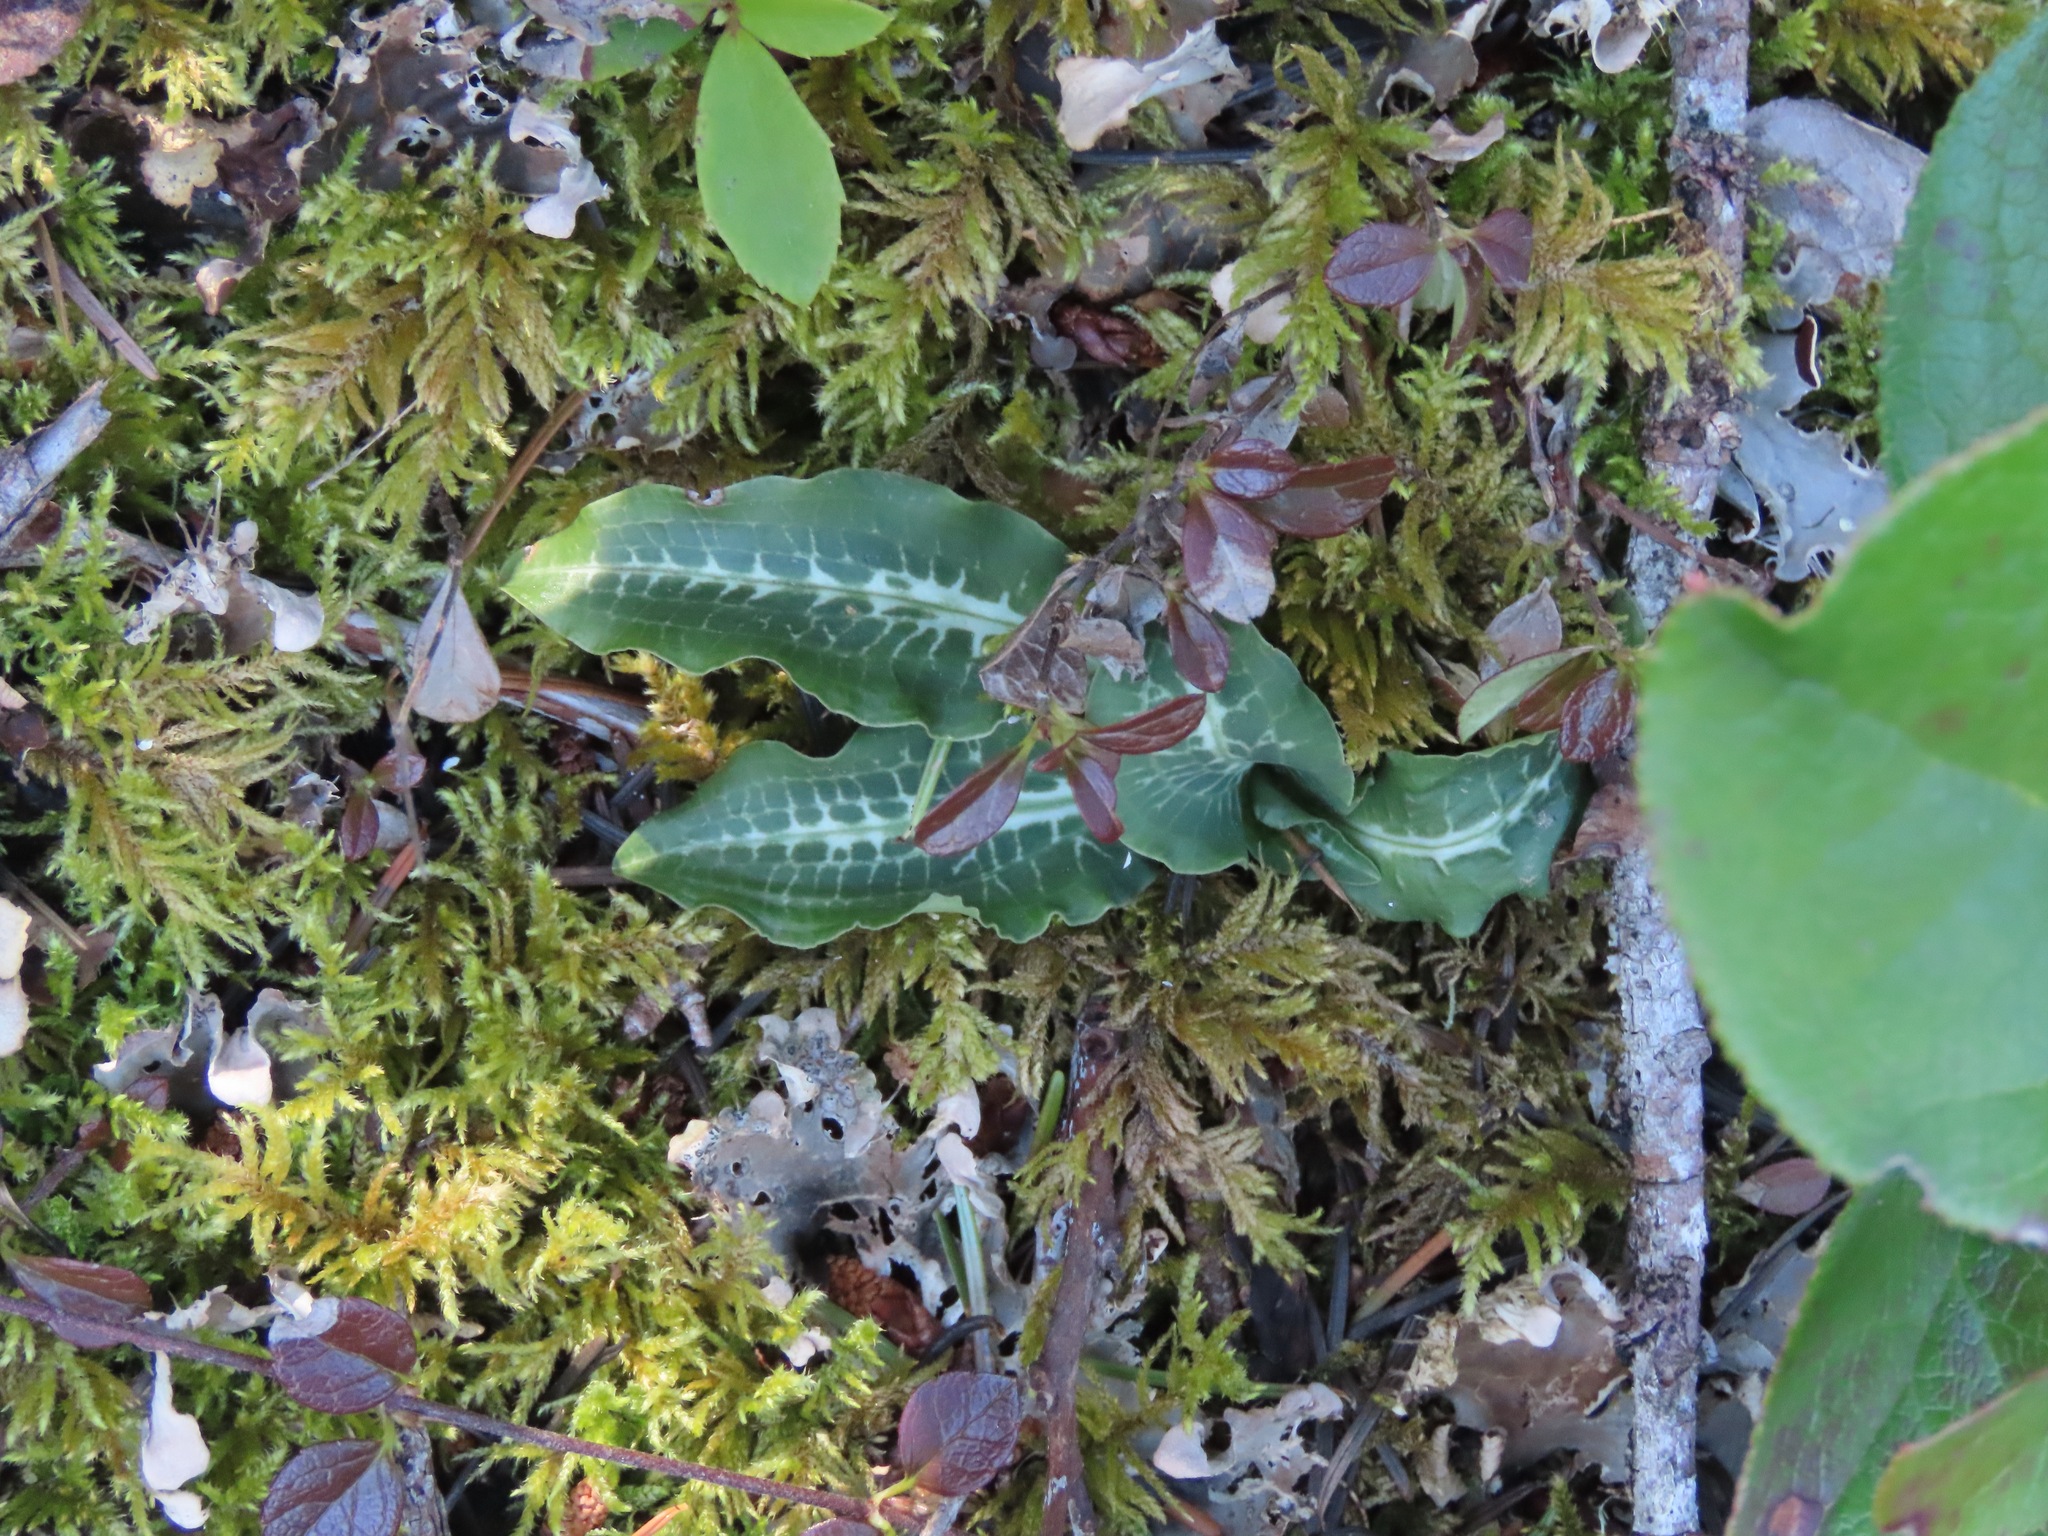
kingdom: Plantae
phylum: Tracheophyta
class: Liliopsida
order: Asparagales
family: Orchidaceae
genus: Goodyera
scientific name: Goodyera oblongifolia
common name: Giant rattlesnake-plantain
